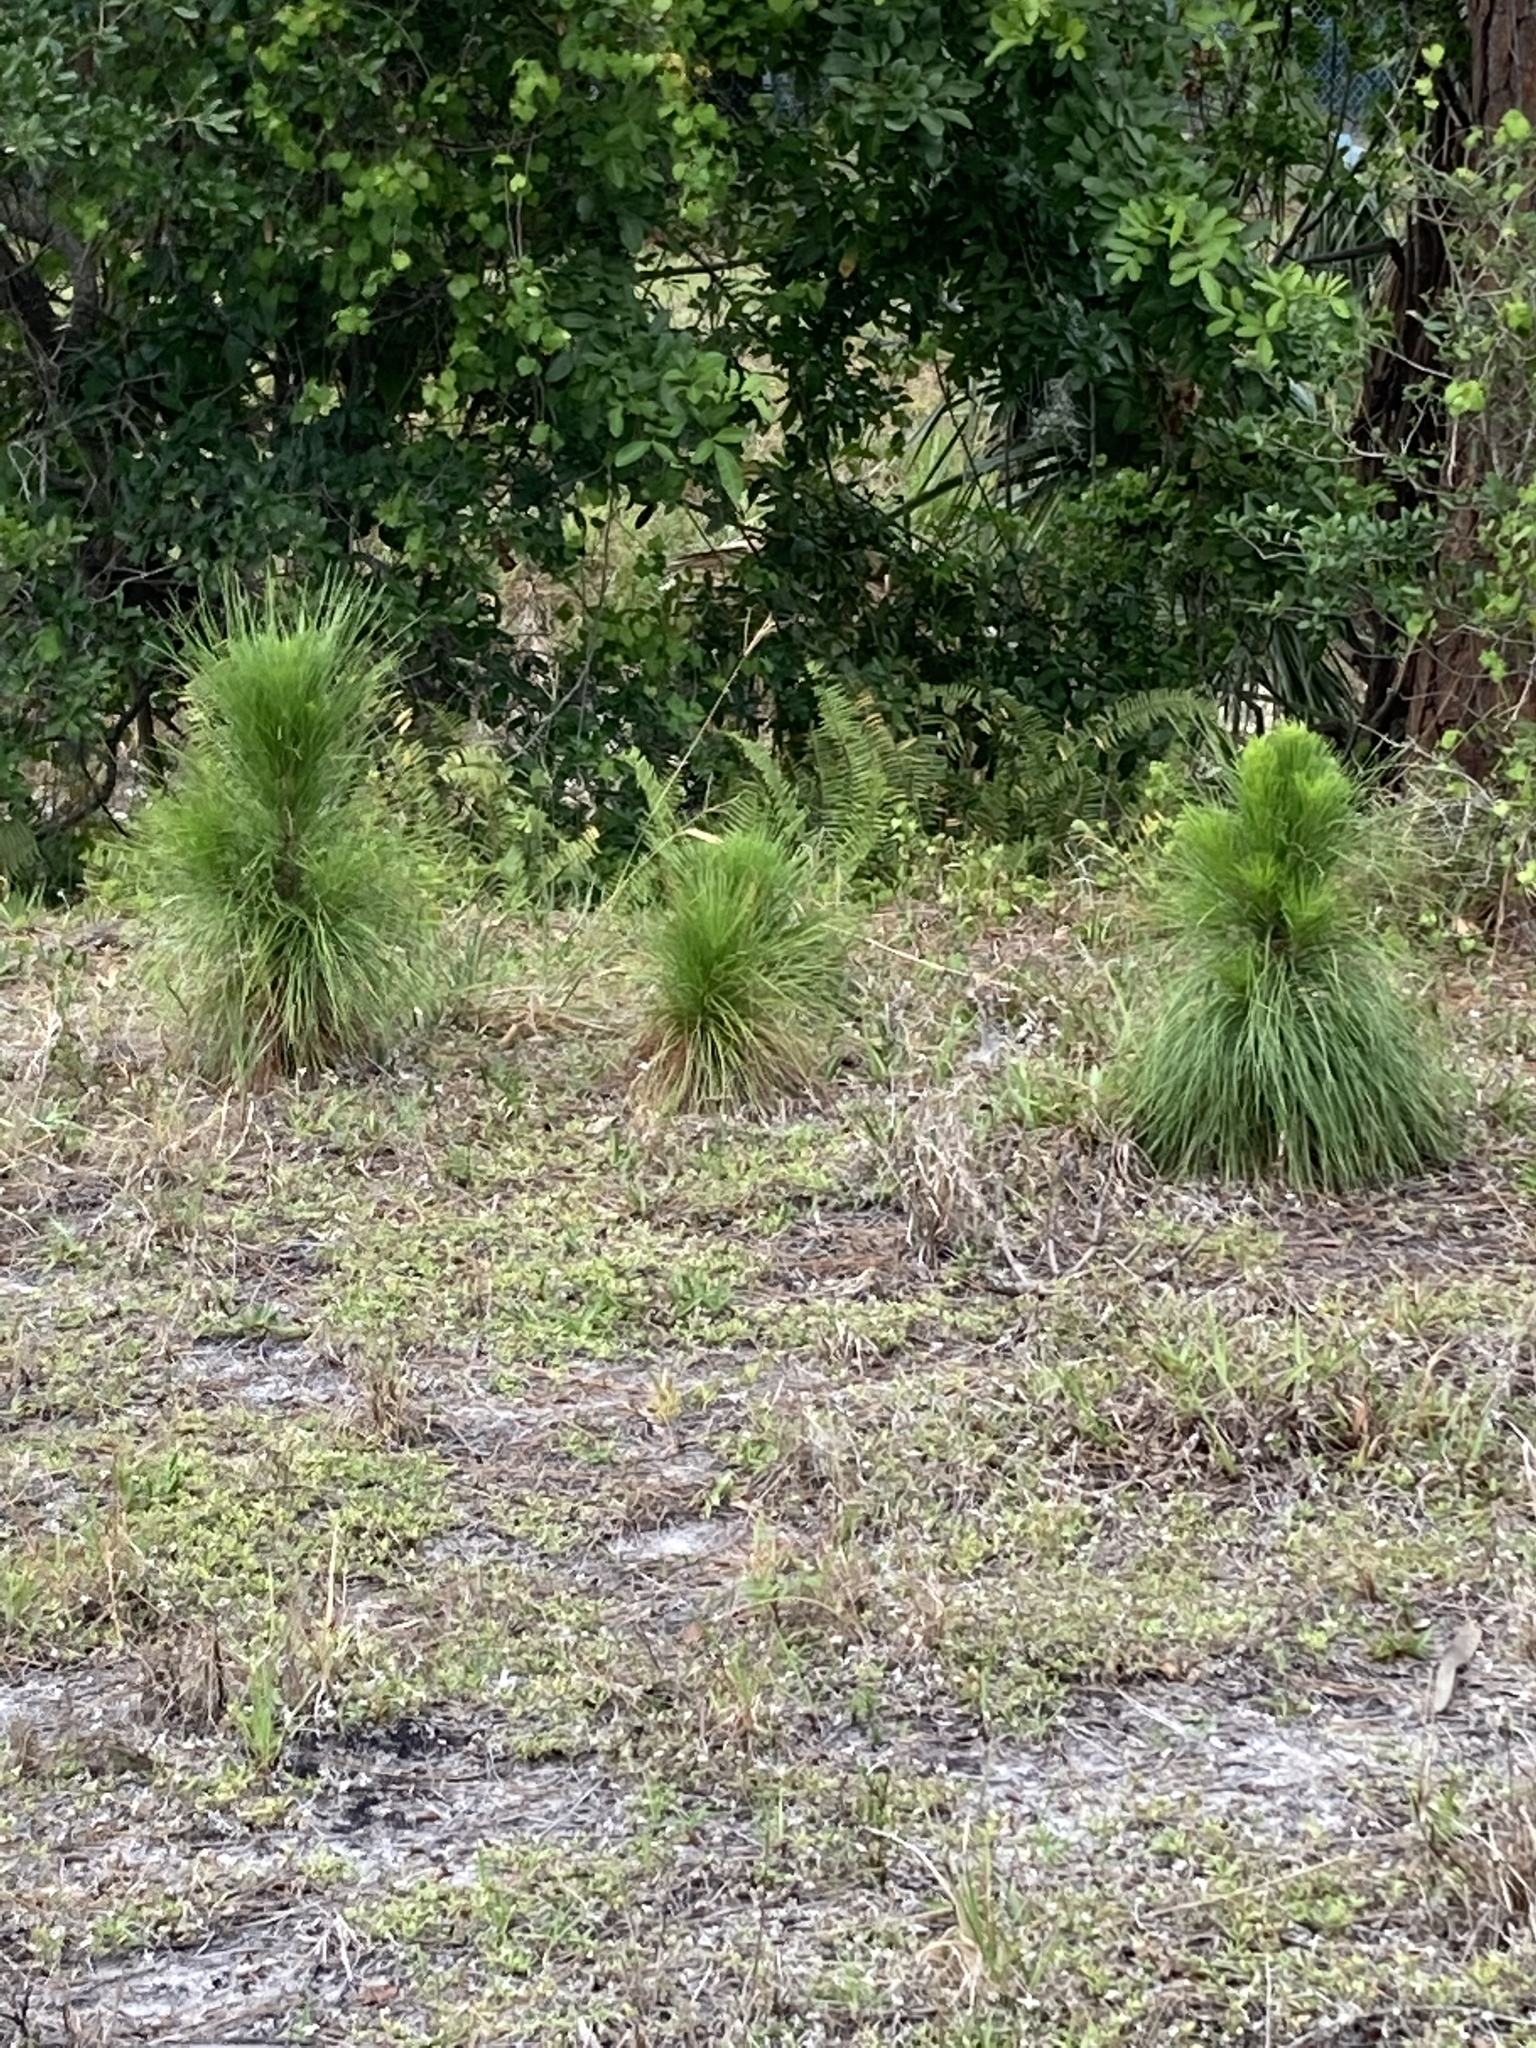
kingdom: Plantae
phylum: Tracheophyta
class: Pinopsida
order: Pinales
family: Pinaceae
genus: Pinus
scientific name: Pinus elliottii
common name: Slash pine
